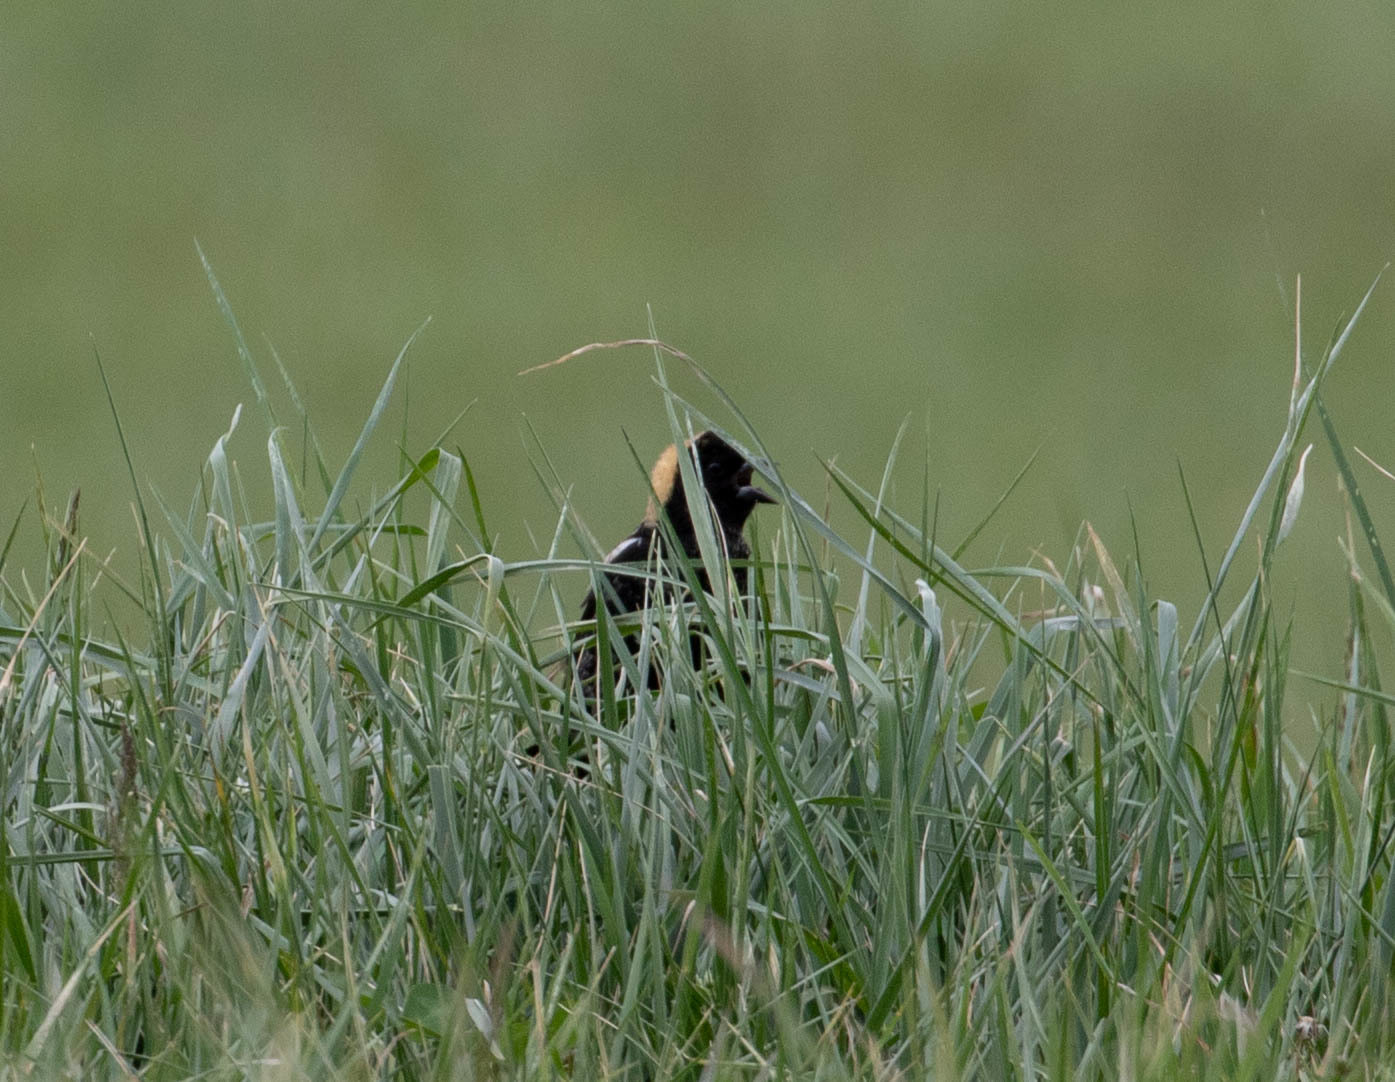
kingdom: Animalia
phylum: Chordata
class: Aves
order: Passeriformes
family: Icteridae
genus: Dolichonyx
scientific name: Dolichonyx oryzivorus
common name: Bobolink
